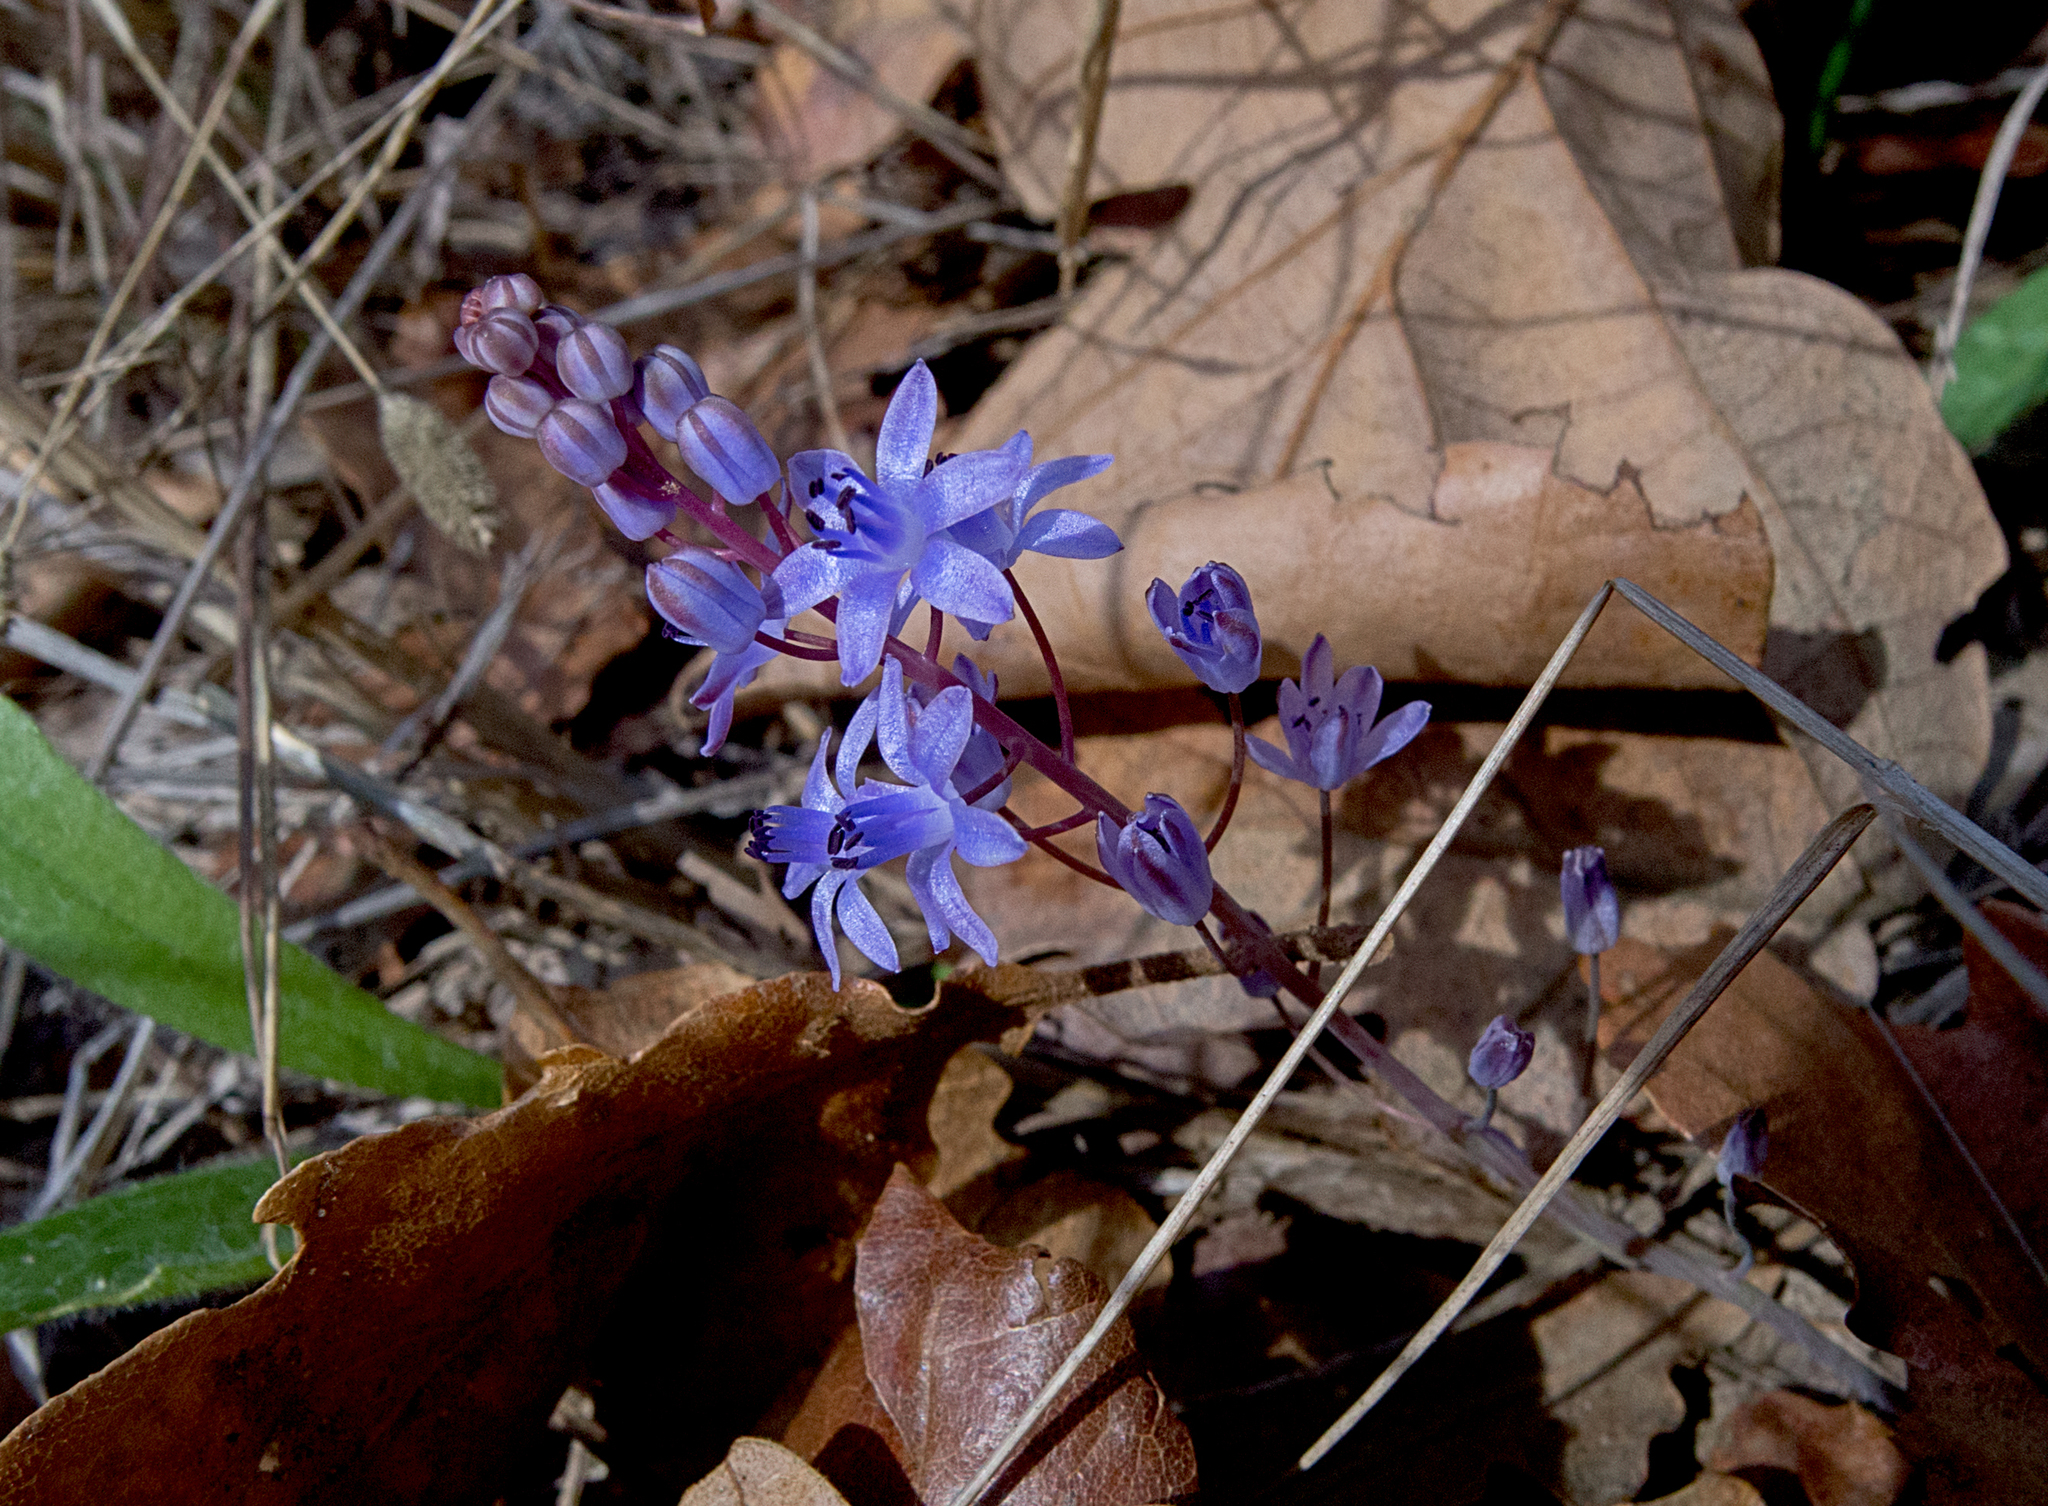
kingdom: Plantae
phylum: Tracheophyta
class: Liliopsida
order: Asparagales
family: Asparagaceae
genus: Prospero
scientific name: Prospero autumnale
